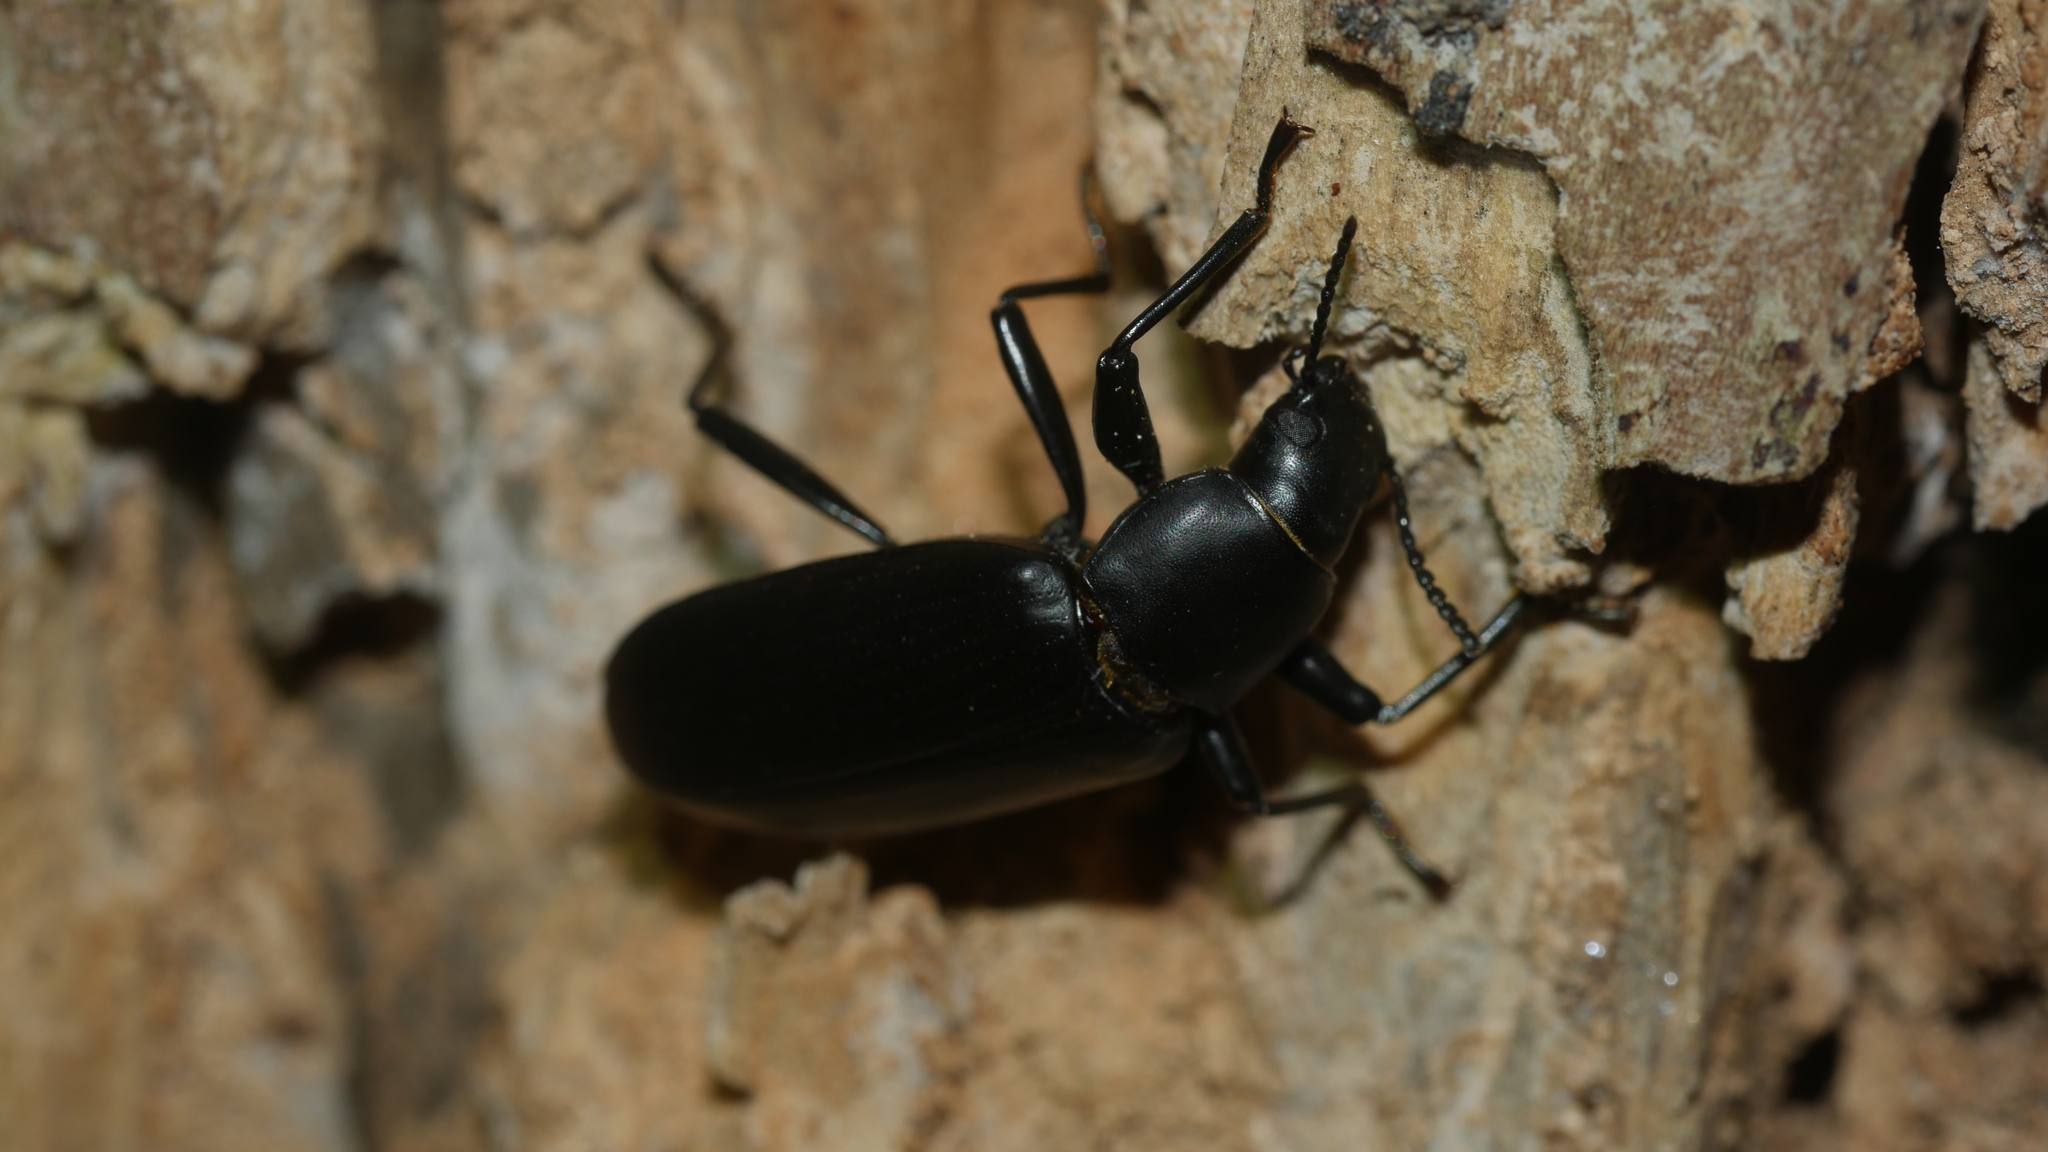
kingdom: Animalia
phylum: Arthropoda
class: Insecta
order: Coleoptera
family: Tenebrionidae
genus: Alobates
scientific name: Alobates
